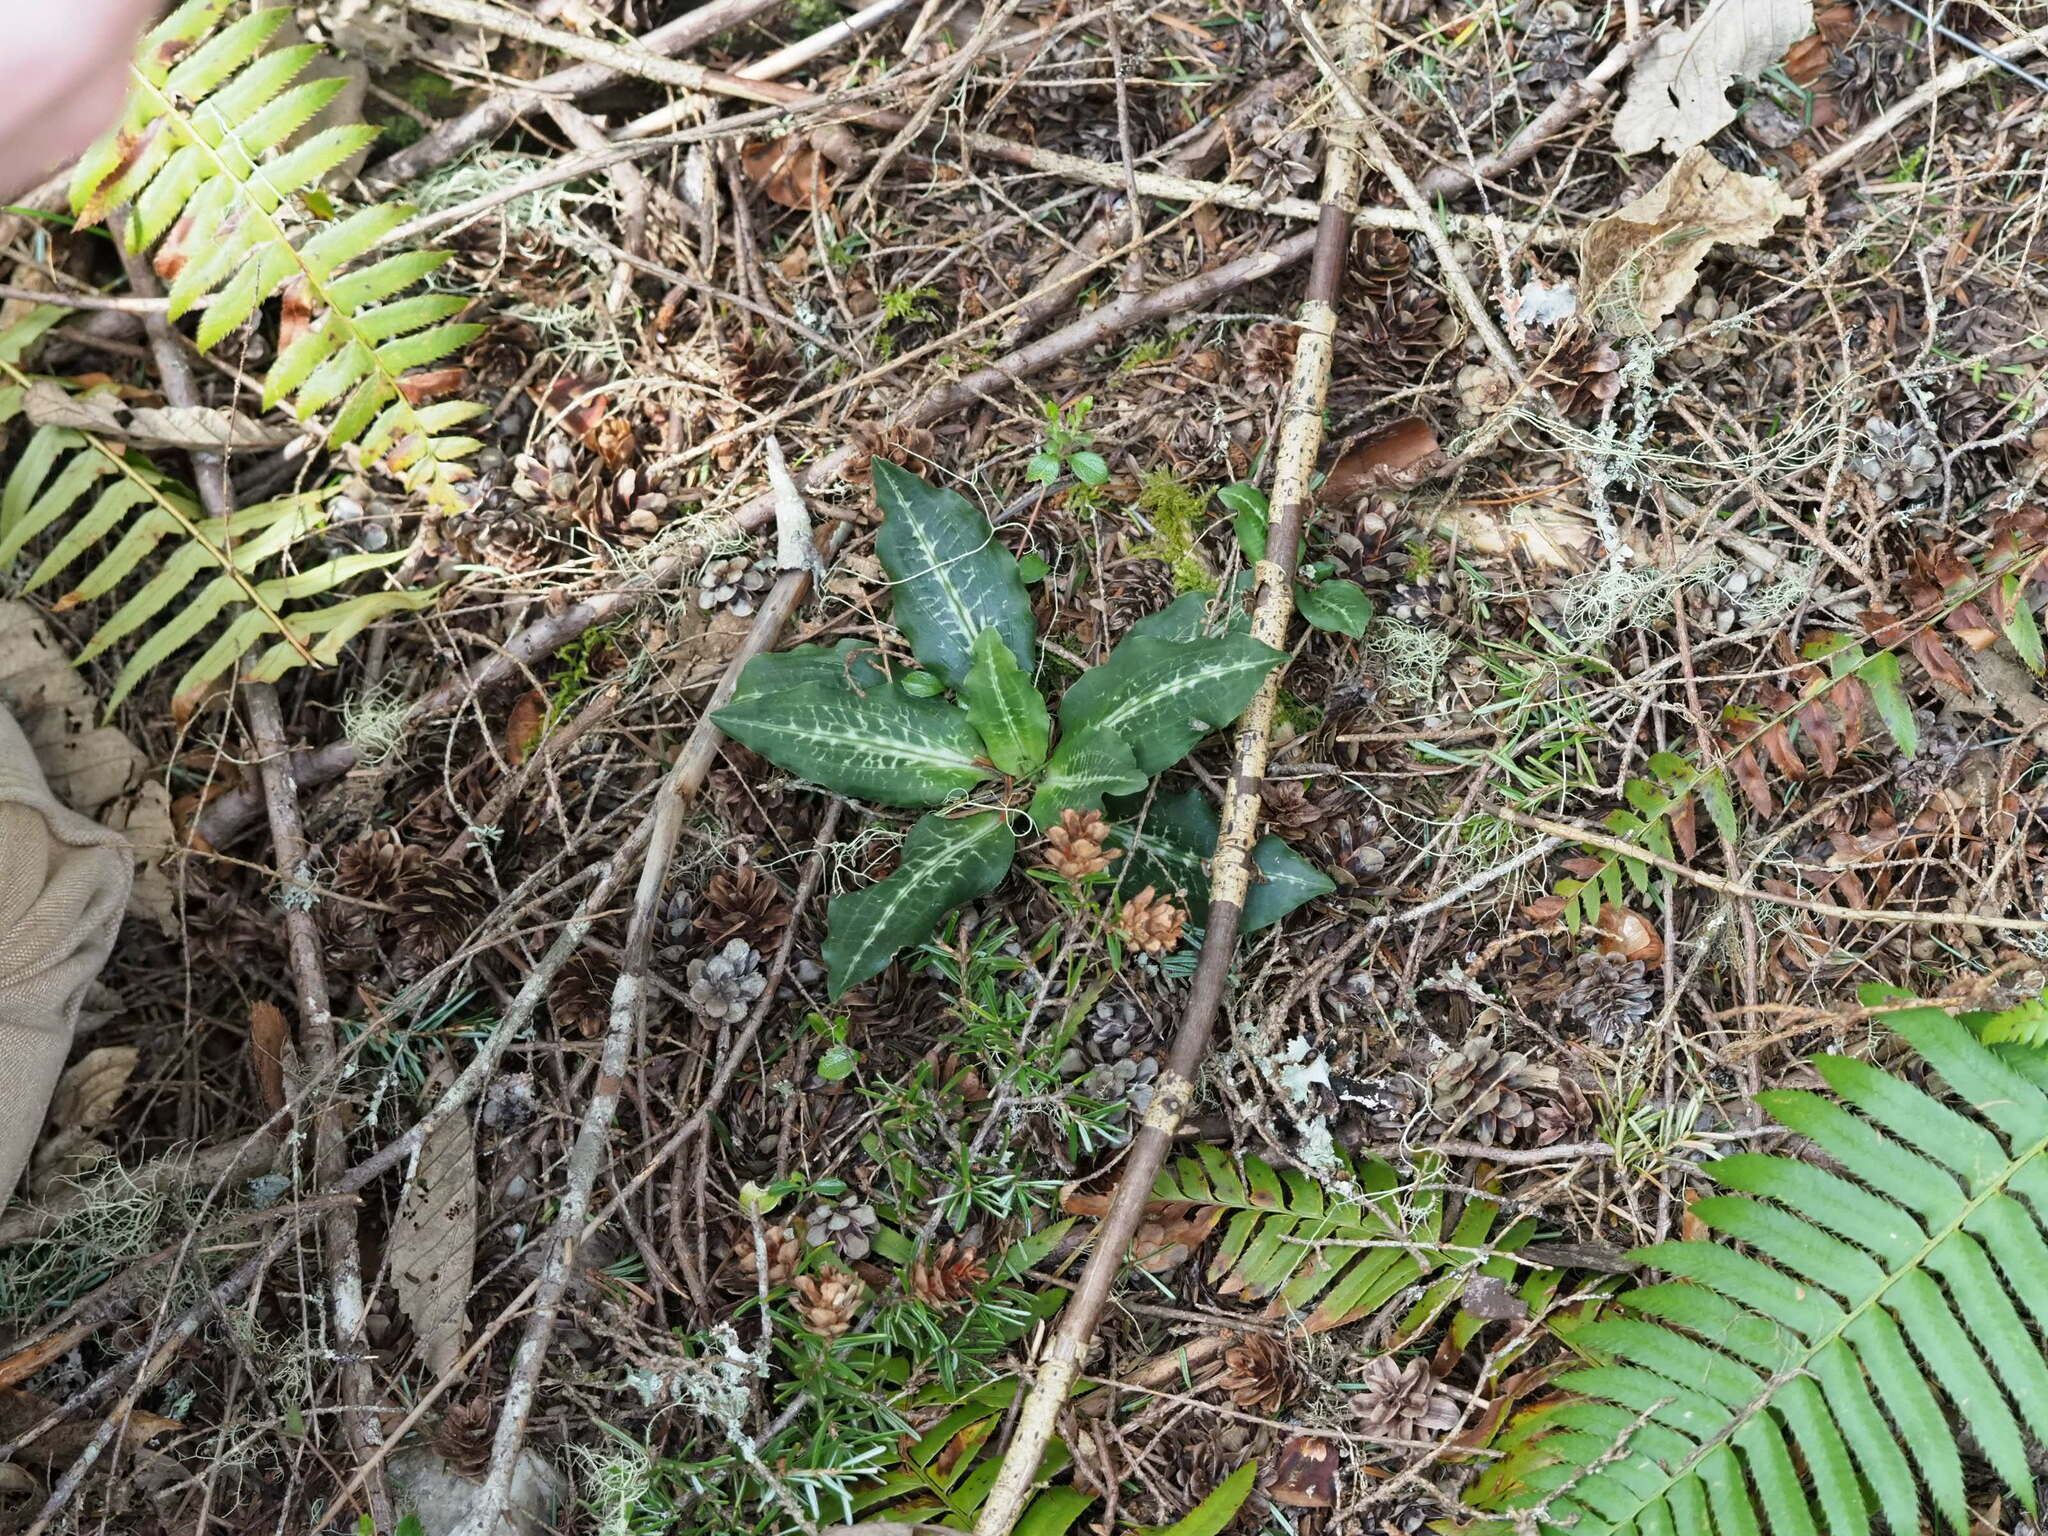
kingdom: Plantae
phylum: Tracheophyta
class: Liliopsida
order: Asparagales
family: Orchidaceae
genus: Goodyera
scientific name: Goodyera oblongifolia
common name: Giant rattlesnake-plantain
